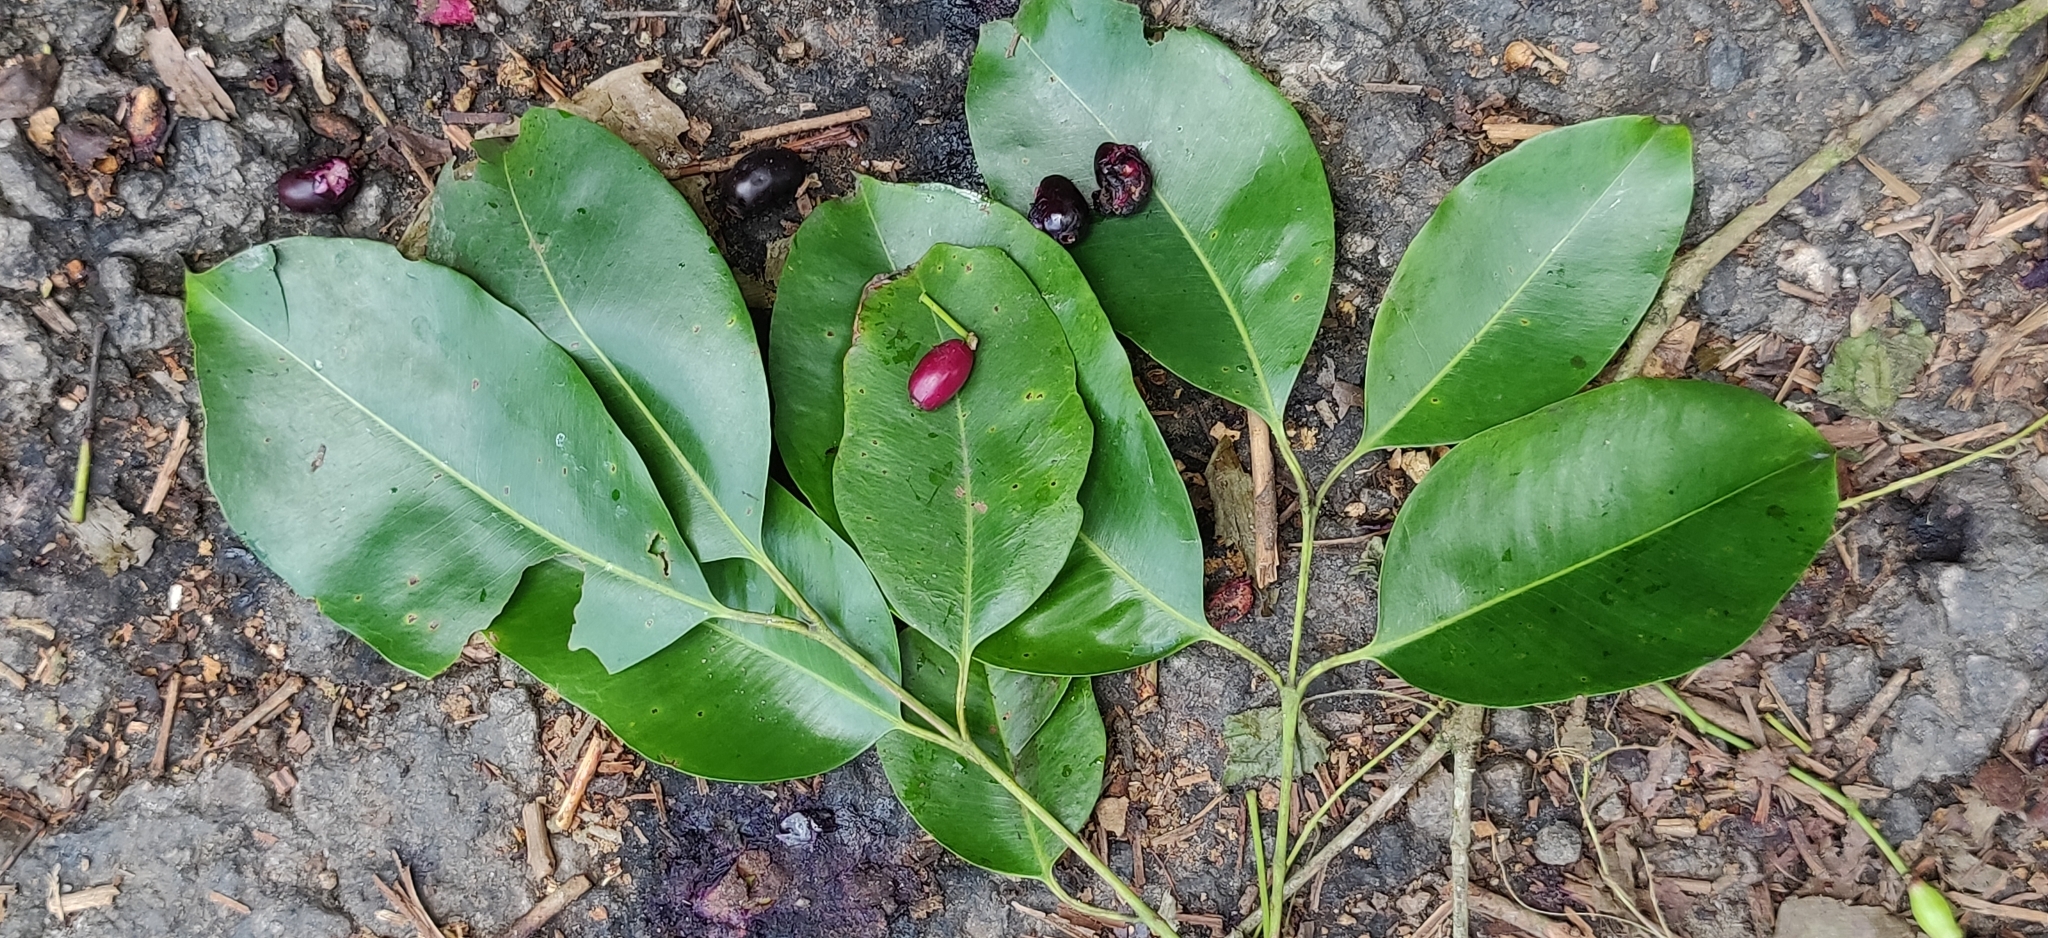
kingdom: Plantae
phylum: Tracheophyta
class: Magnoliopsida
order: Myrtales
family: Myrtaceae
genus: Syzygium
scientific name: Syzygium cumini
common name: Java plum
